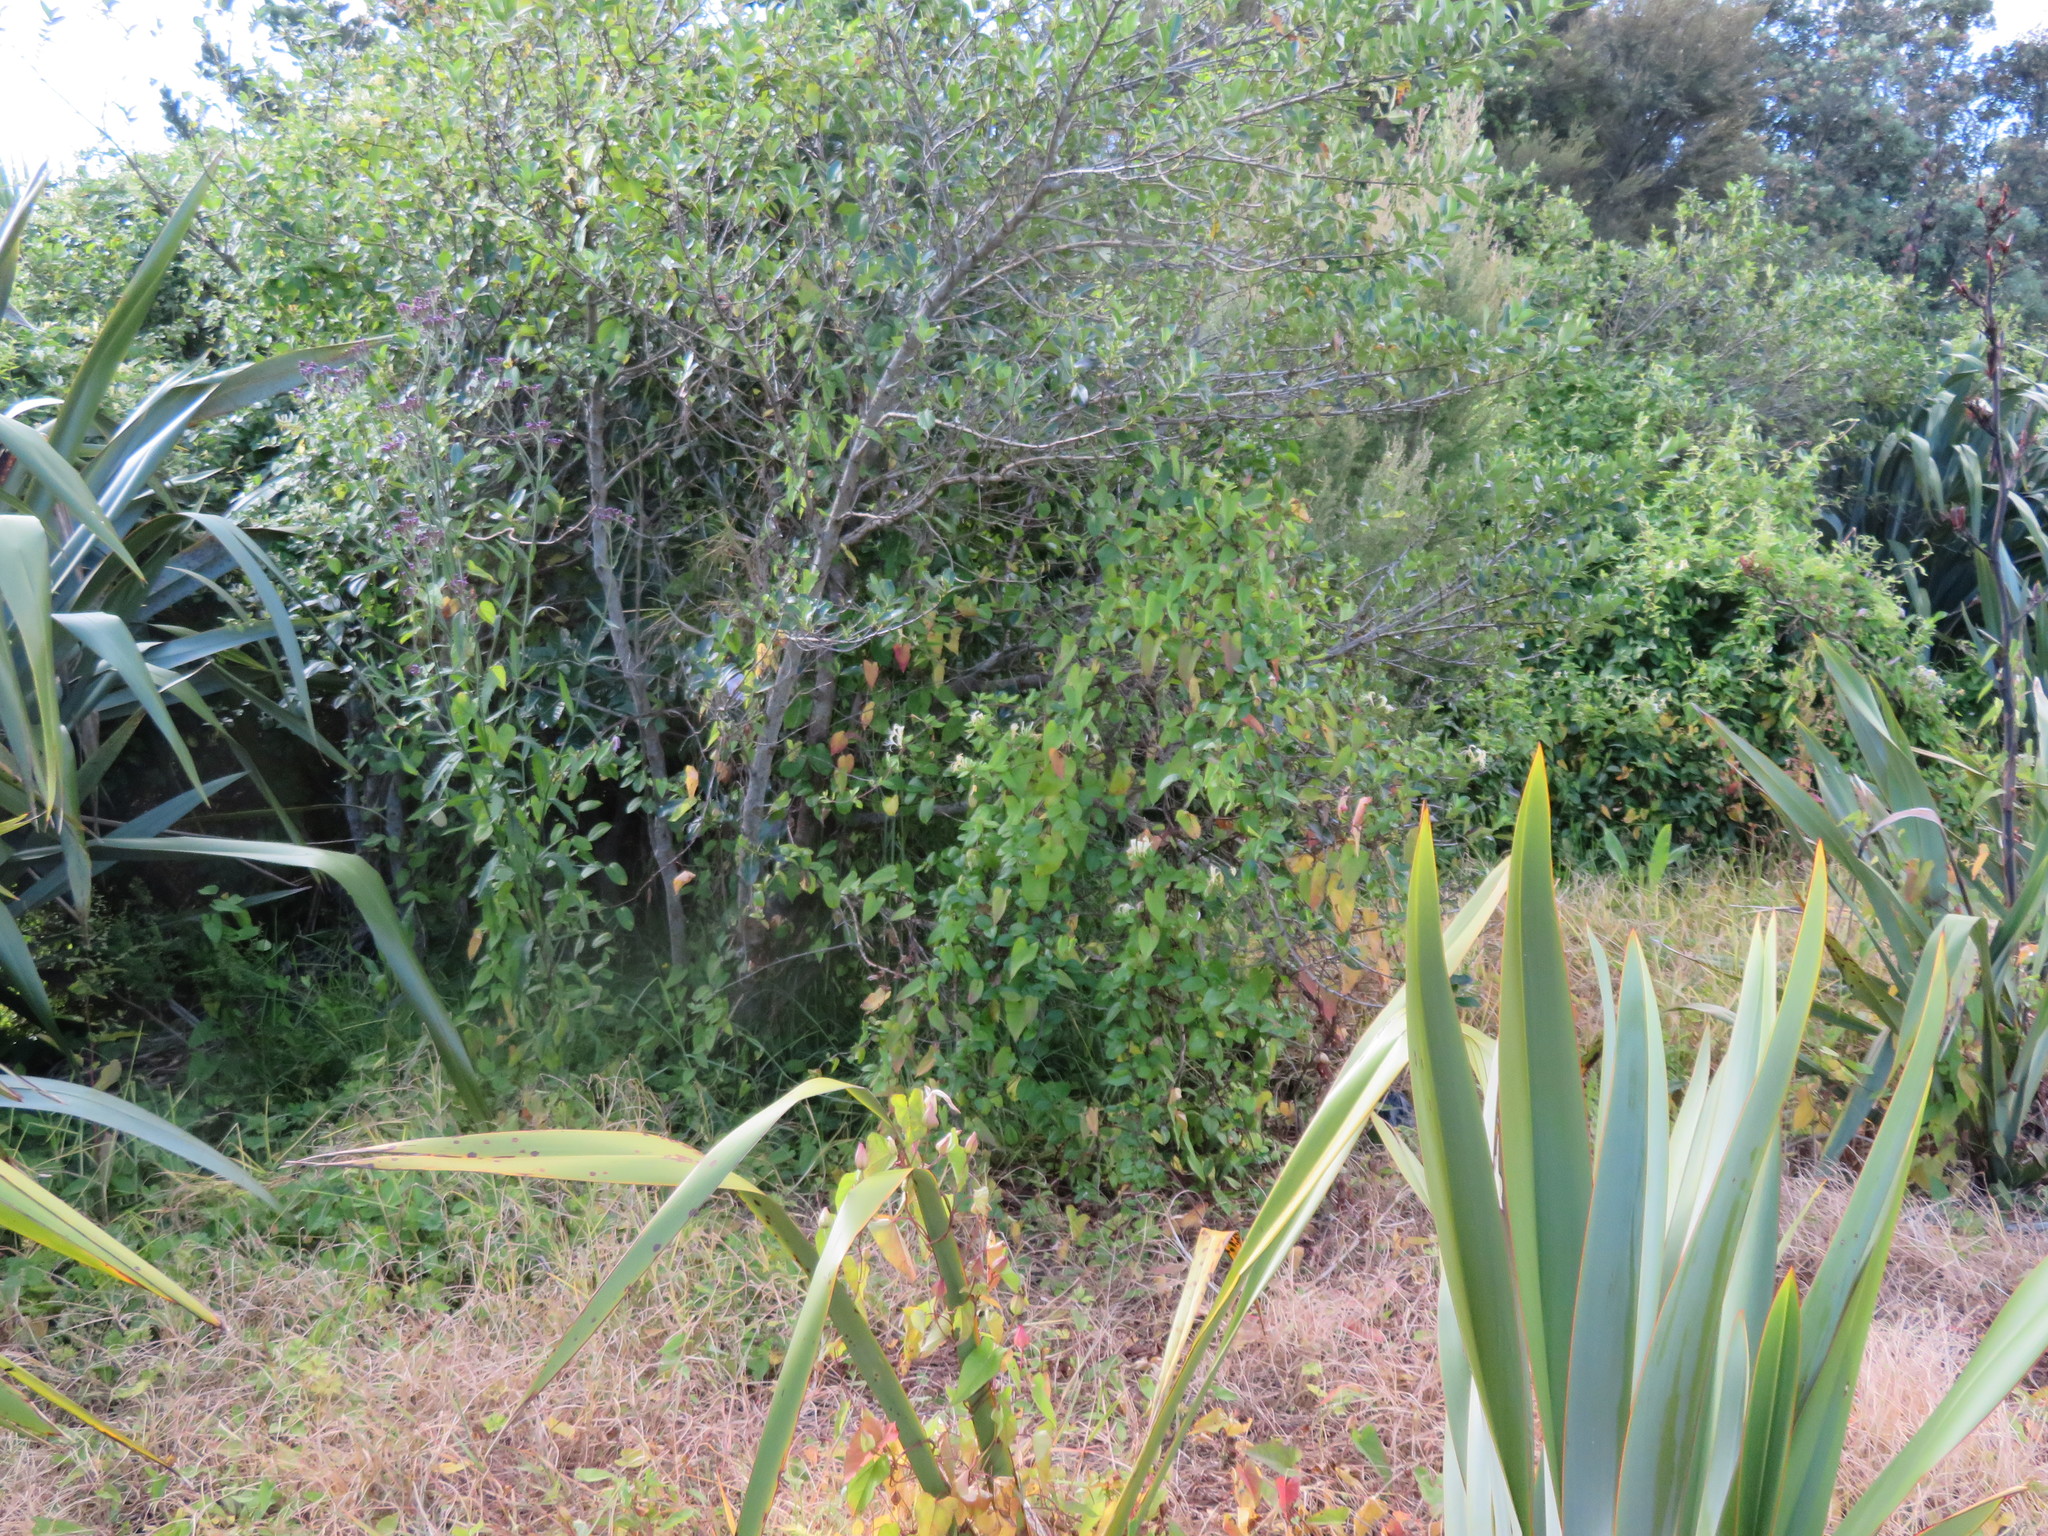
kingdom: Plantae
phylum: Tracheophyta
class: Magnoliopsida
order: Dipsacales
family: Caprifoliaceae
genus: Lonicera
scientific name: Lonicera japonica
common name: Japanese honeysuckle
